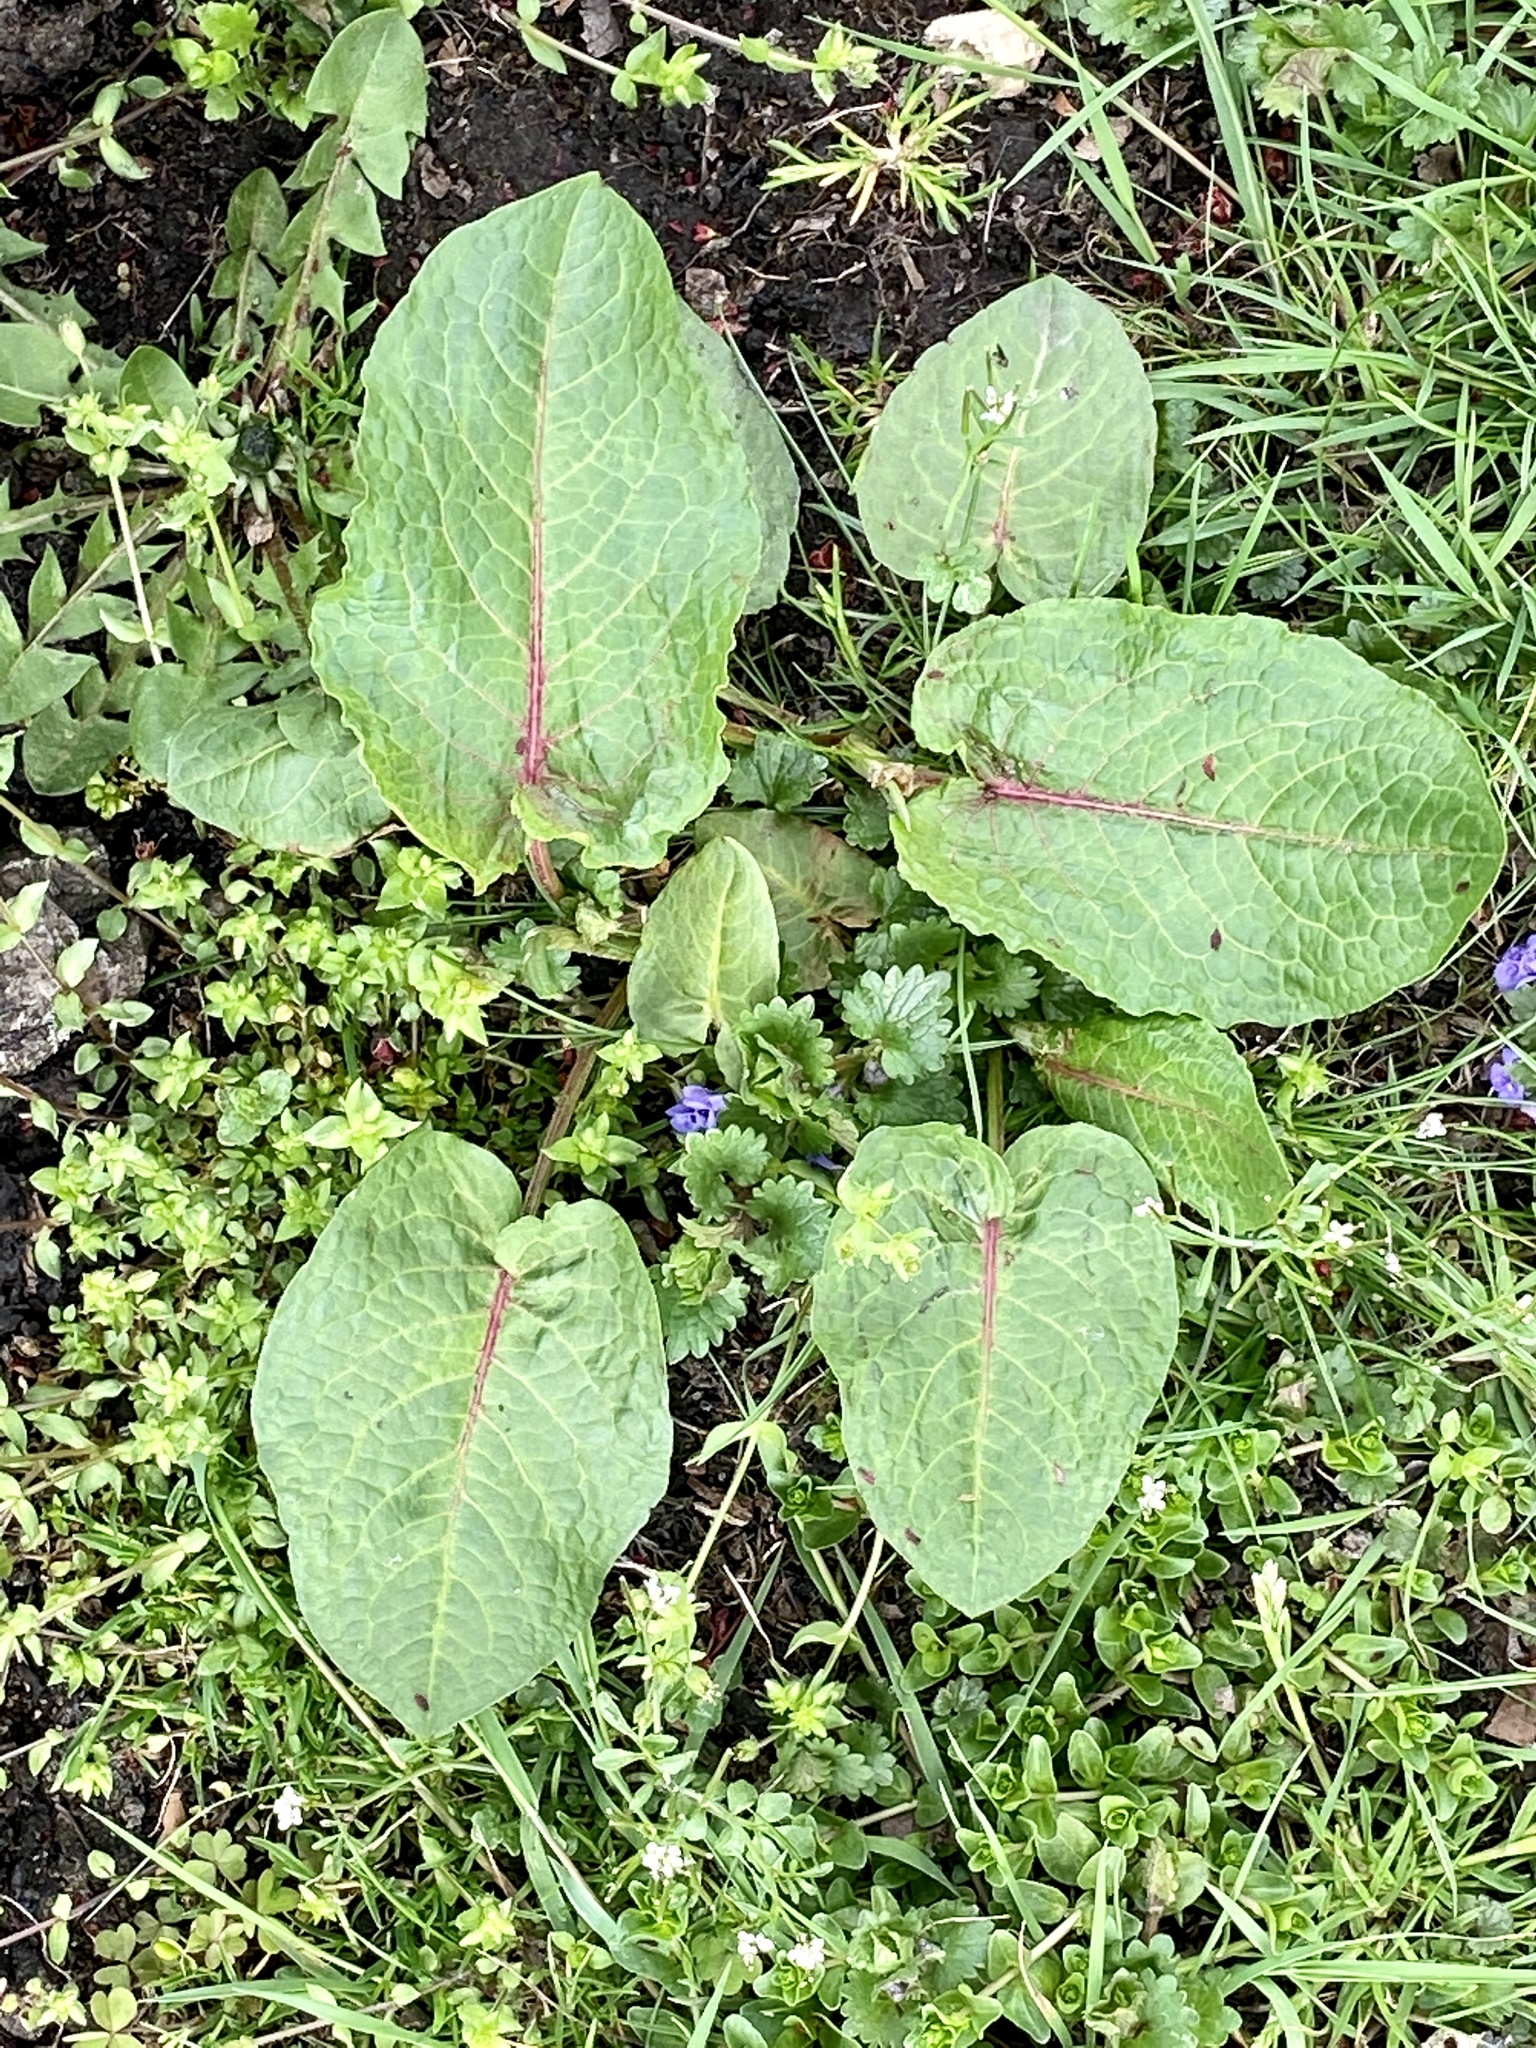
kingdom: Plantae
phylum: Tracheophyta
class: Magnoliopsida
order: Caryophyllales
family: Polygonaceae
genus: Rumex
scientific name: Rumex obtusifolius
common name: Bitter dock
